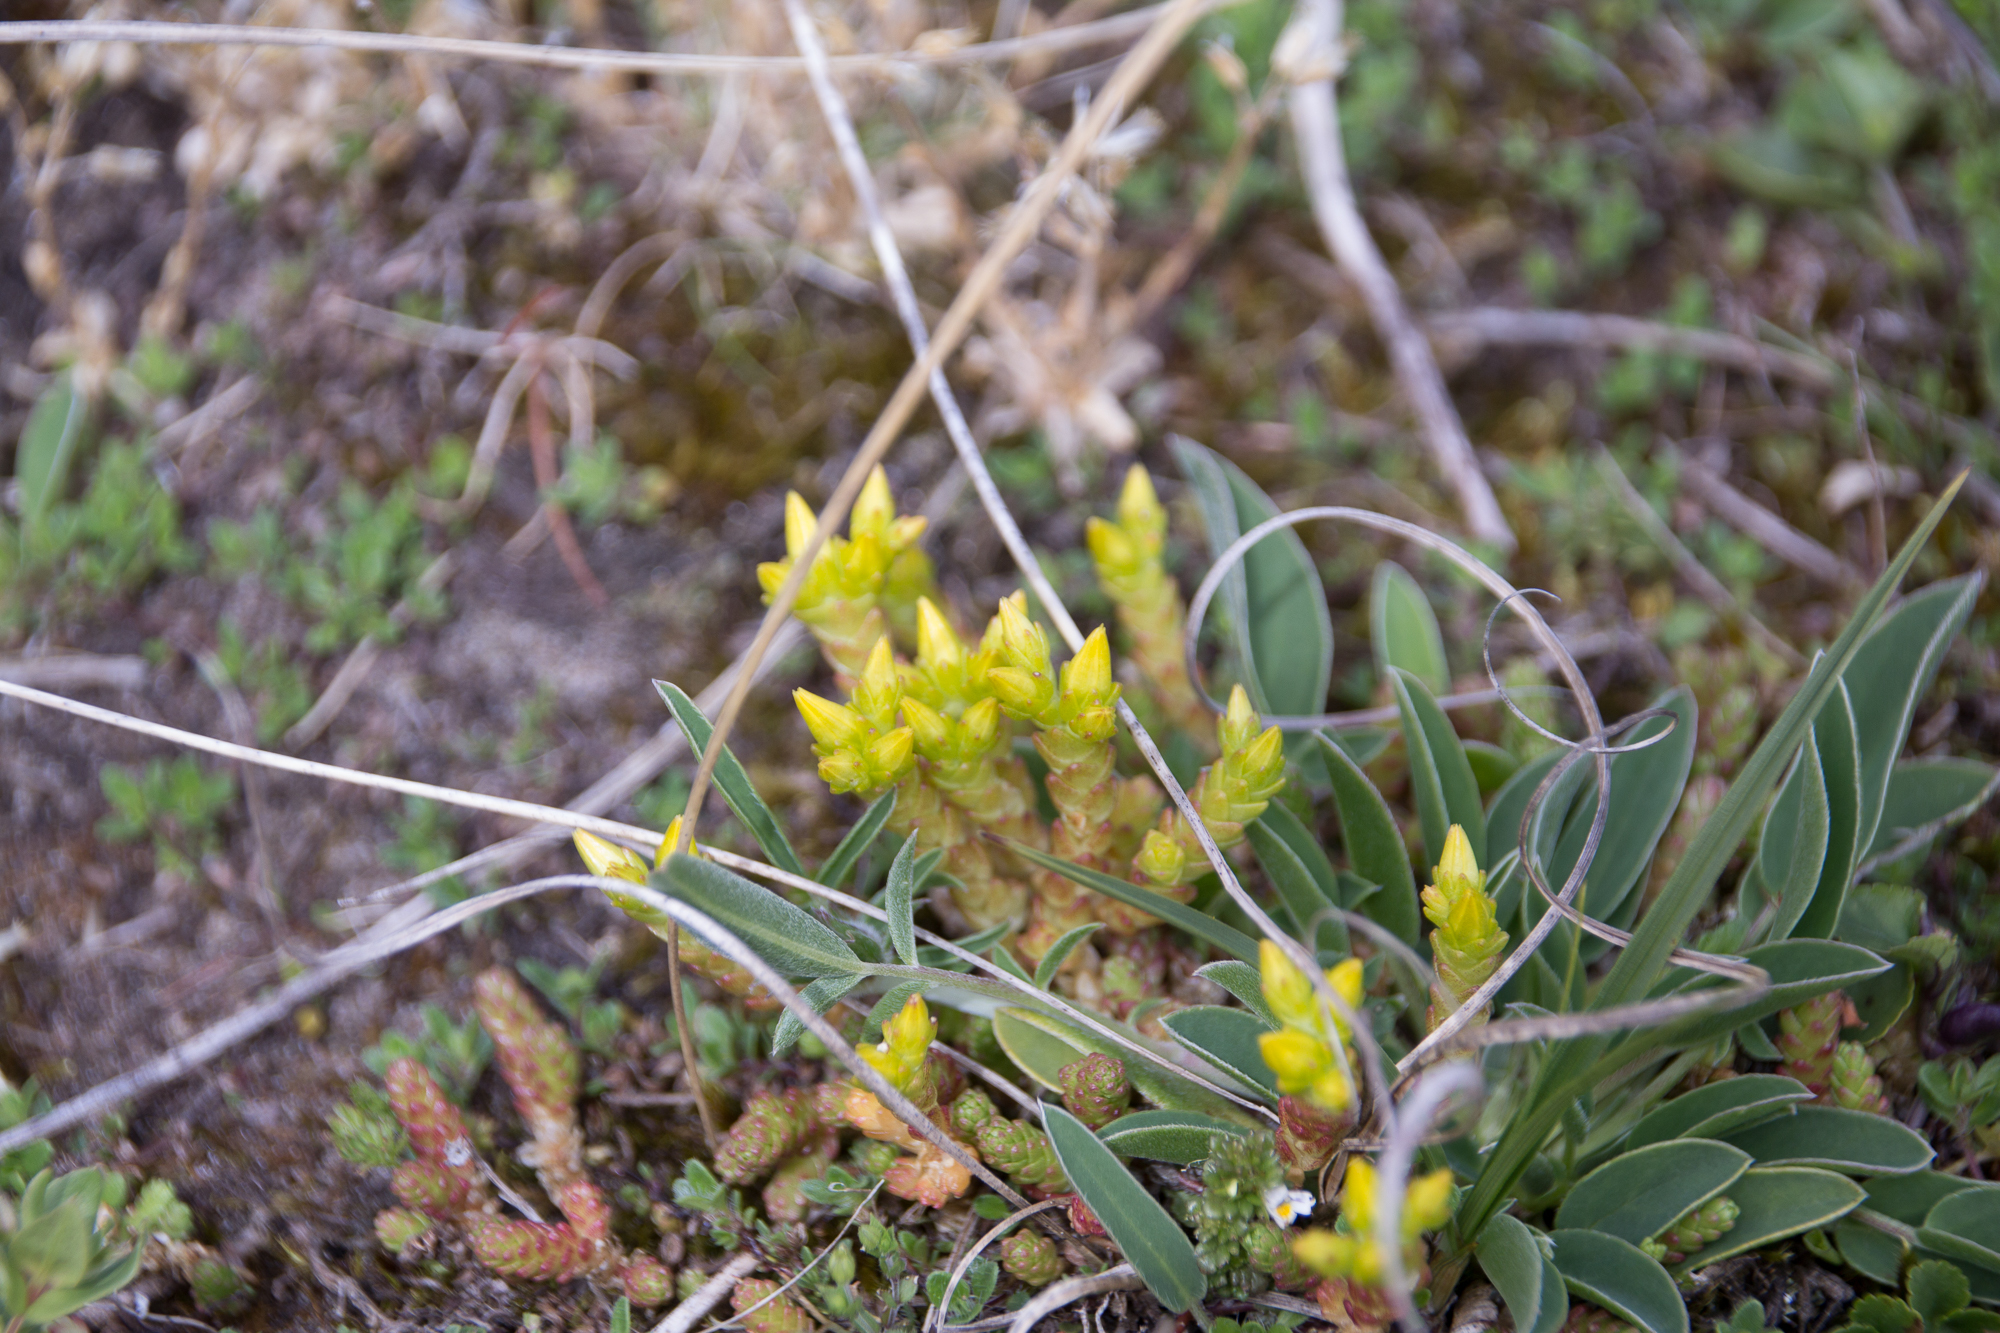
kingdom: Plantae
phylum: Tracheophyta
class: Magnoliopsida
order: Saxifragales
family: Crassulaceae
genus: Sedum
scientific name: Sedum acre
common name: Biting stonecrop
